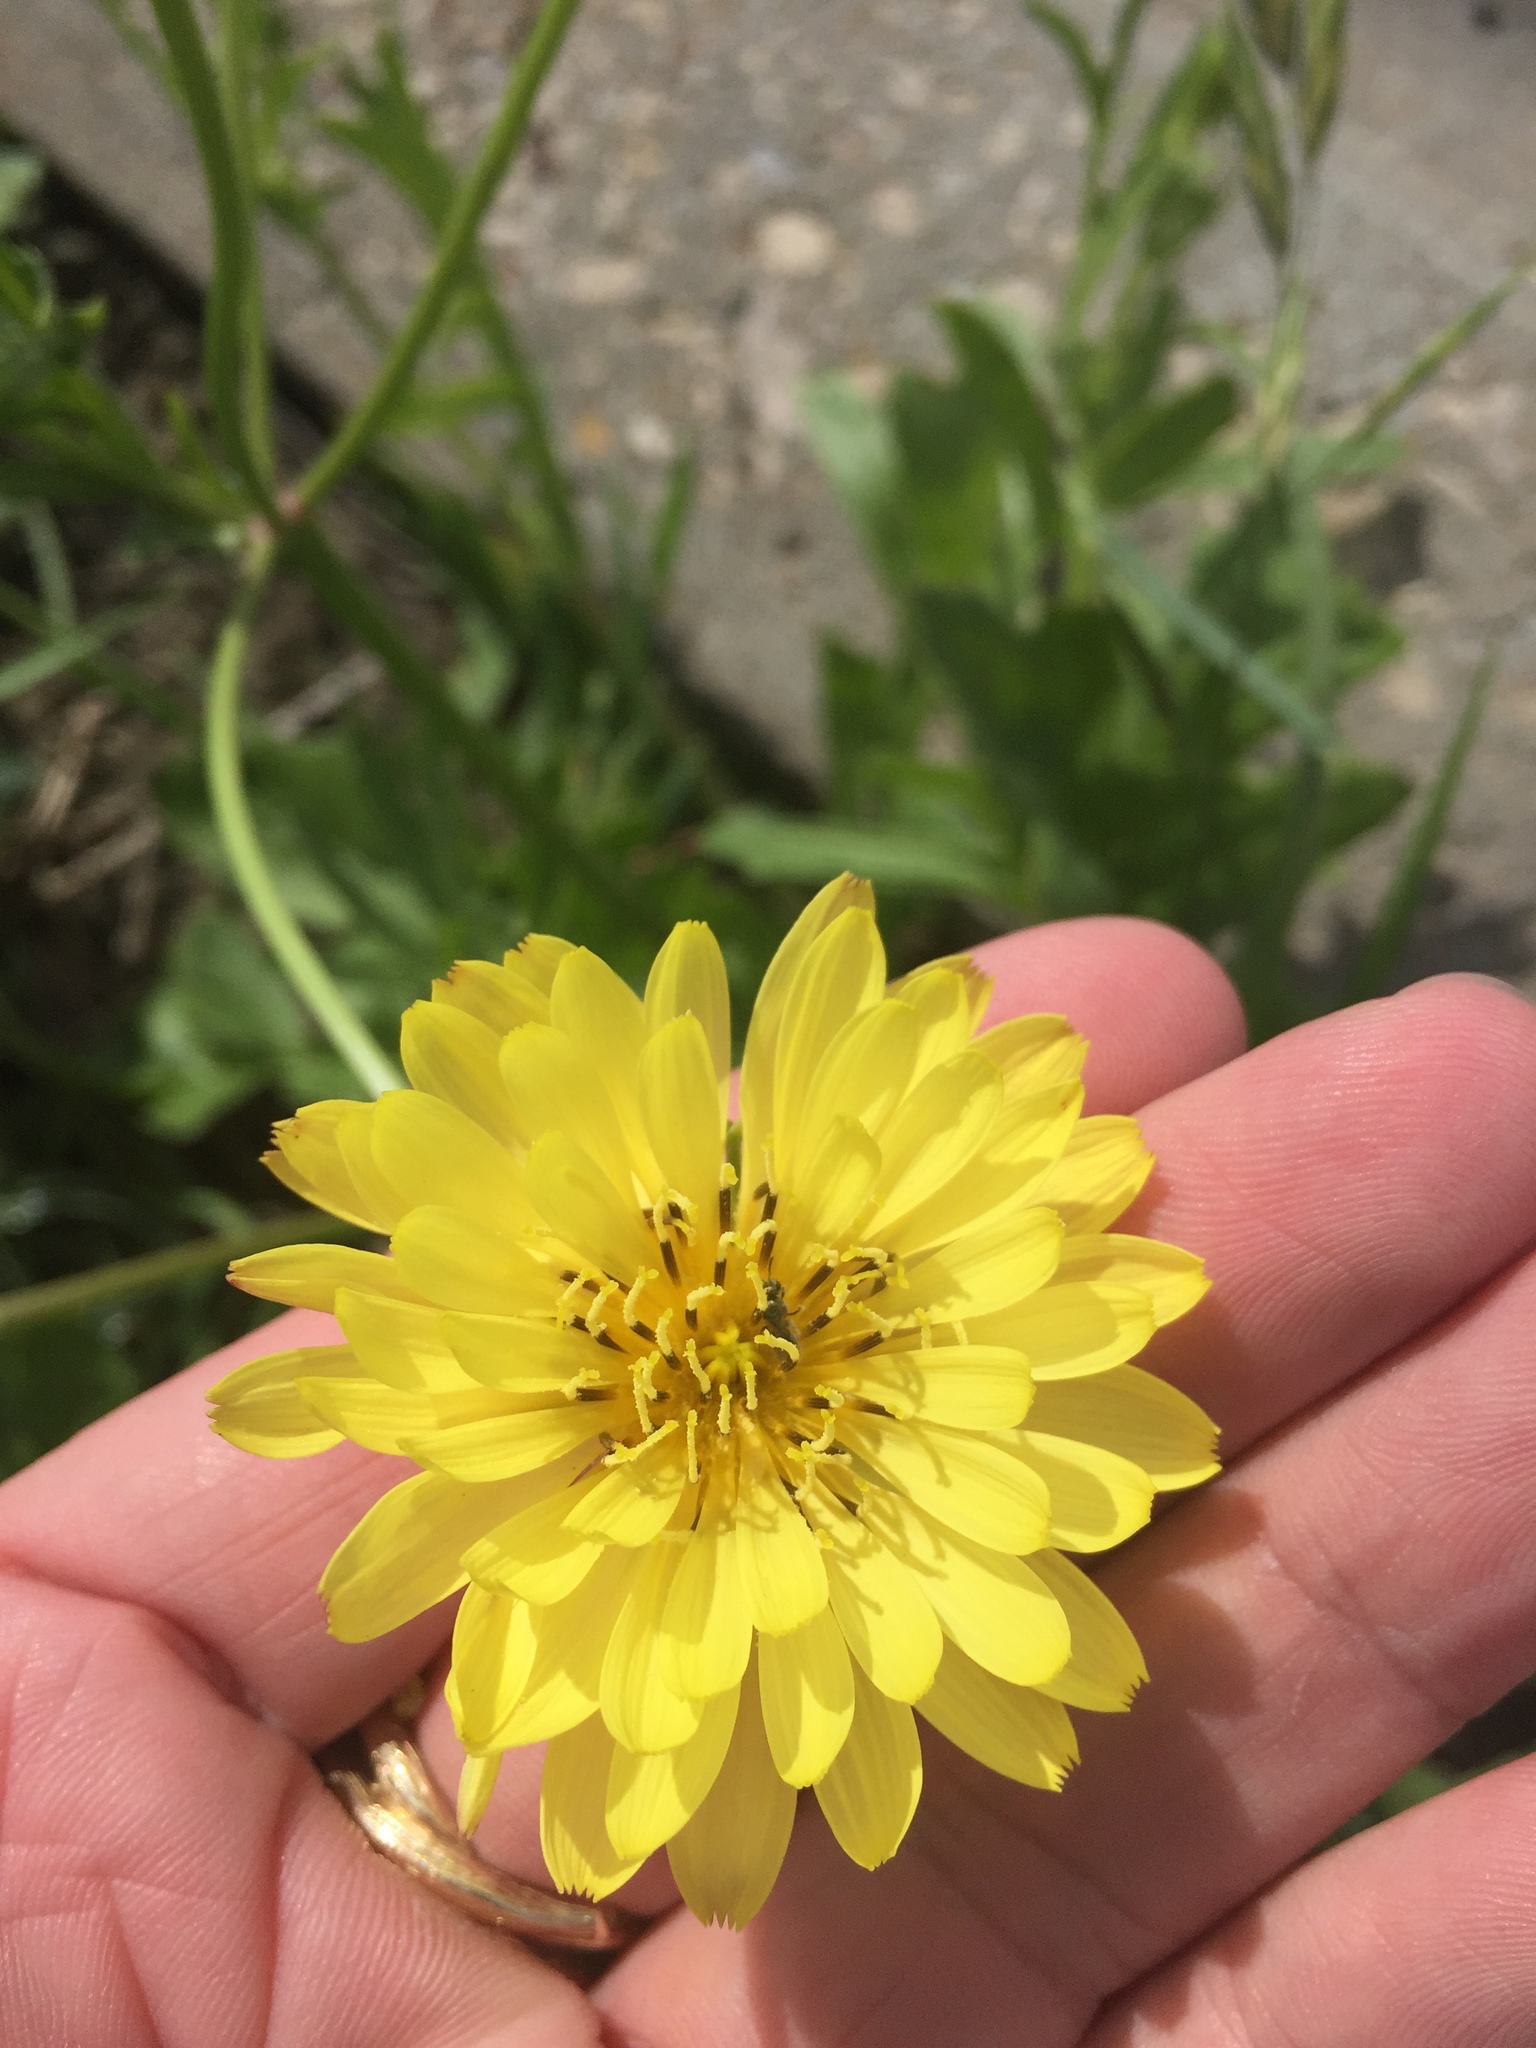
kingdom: Plantae
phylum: Tracheophyta
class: Magnoliopsida
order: Asterales
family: Asteraceae
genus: Pyrrhopappus
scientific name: Pyrrhopappus pauciflorus
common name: Texas false dandelion
